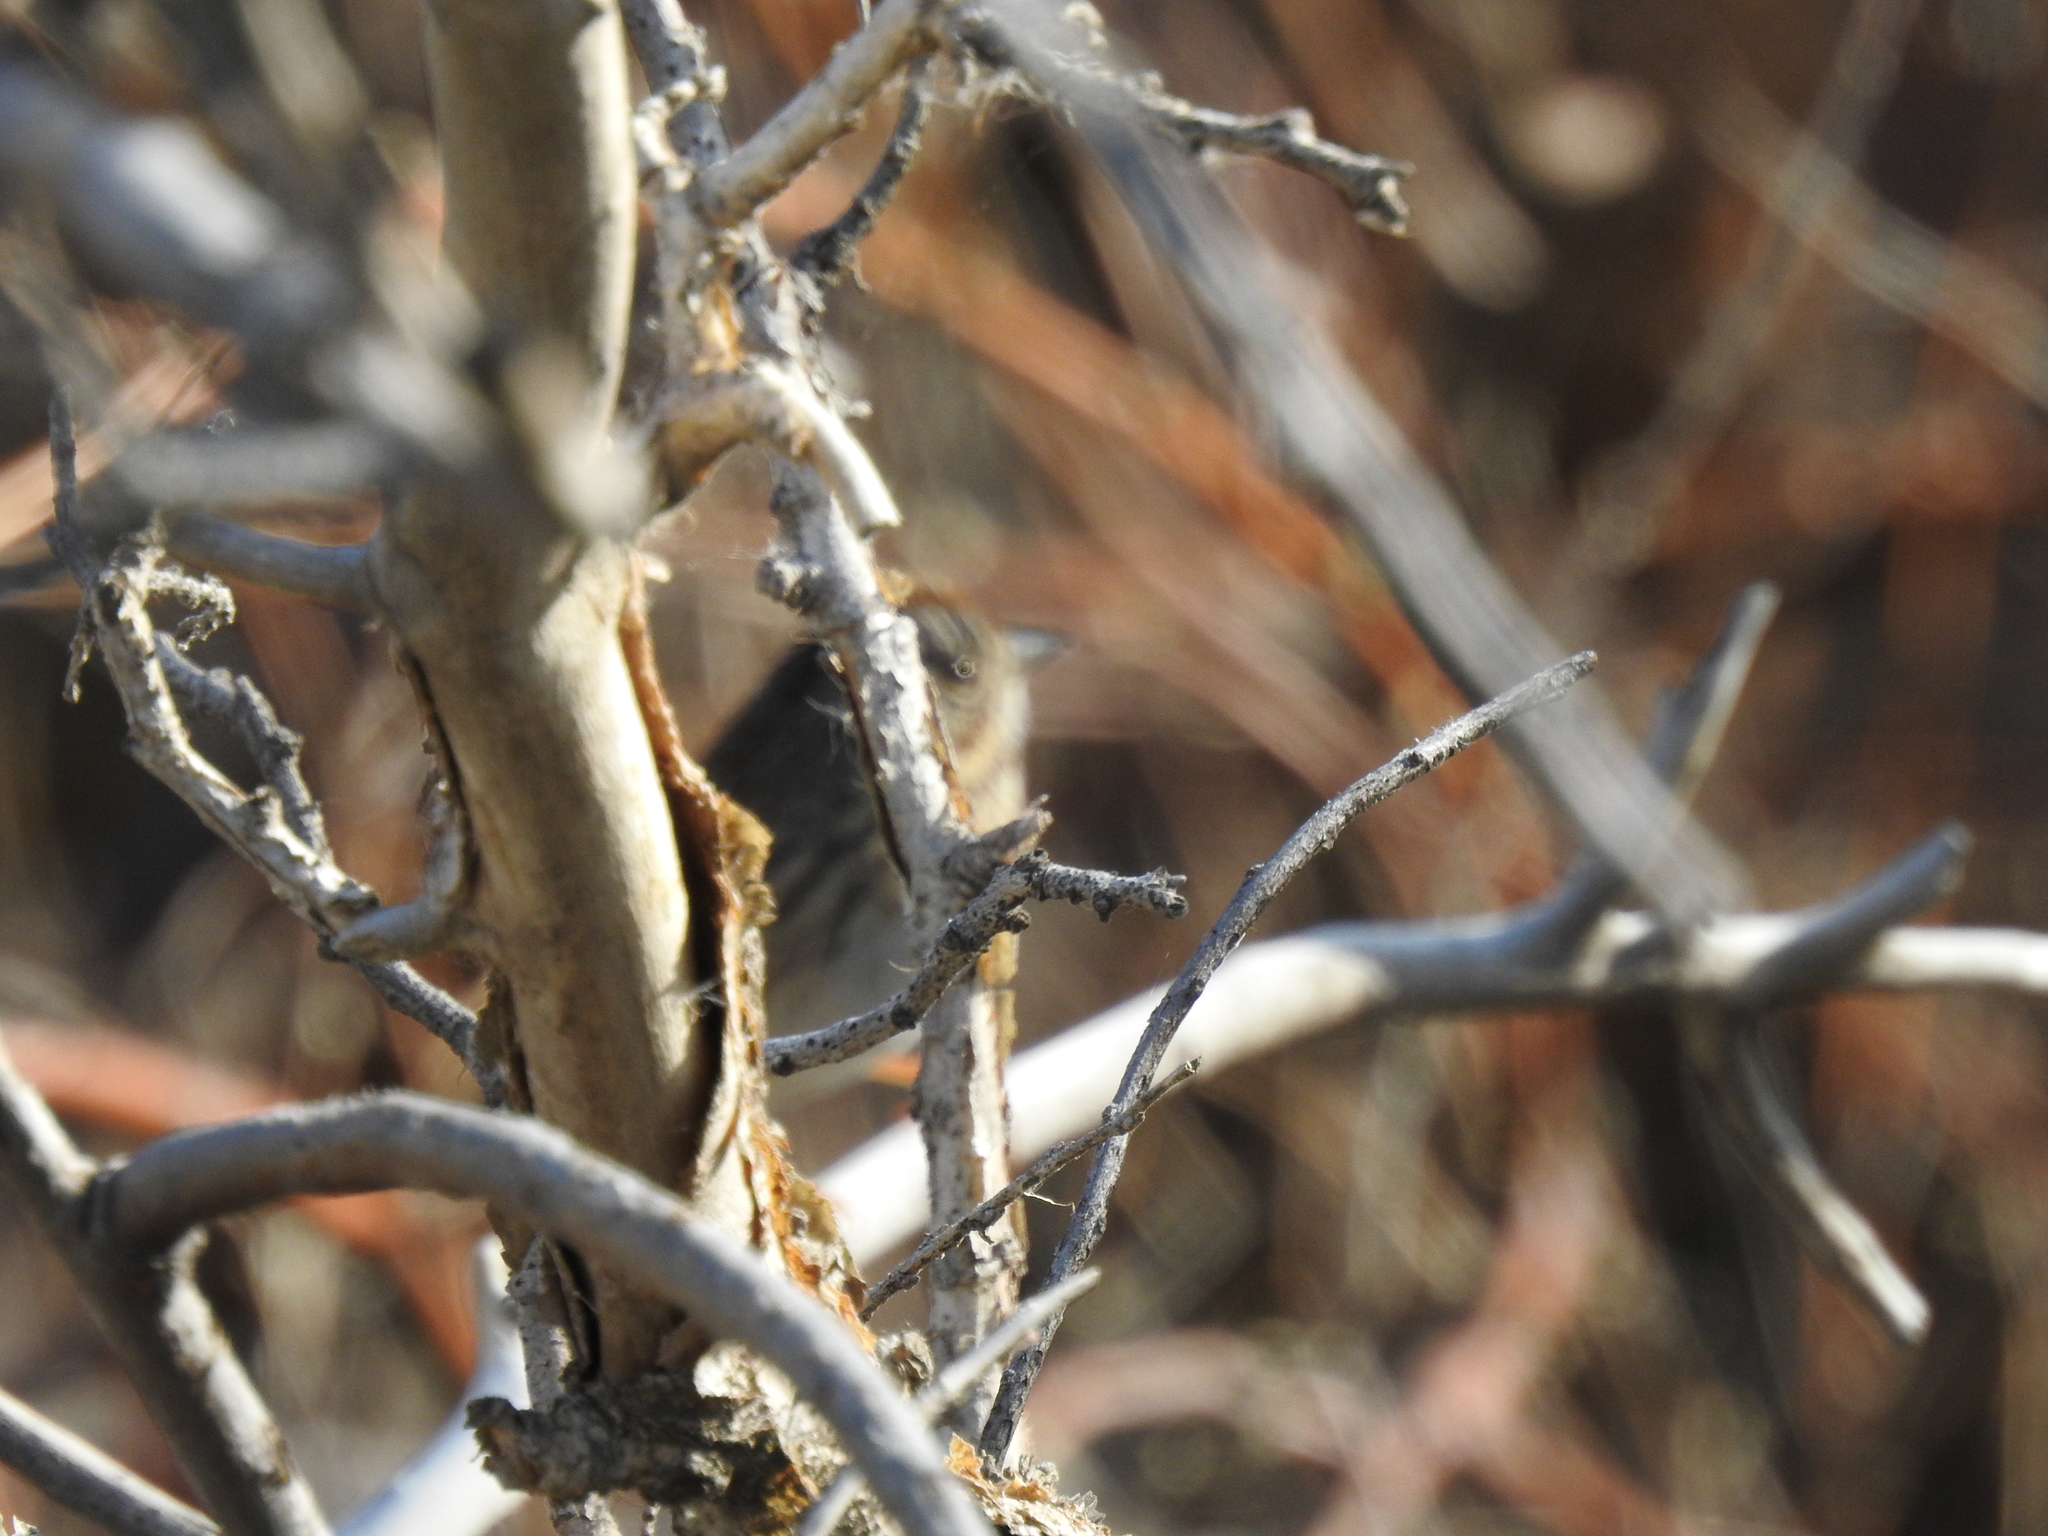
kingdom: Animalia
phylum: Chordata
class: Aves
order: Passeriformes
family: Passerellidae
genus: Melospiza
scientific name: Melospiza lincolnii
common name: Lincoln's sparrow
